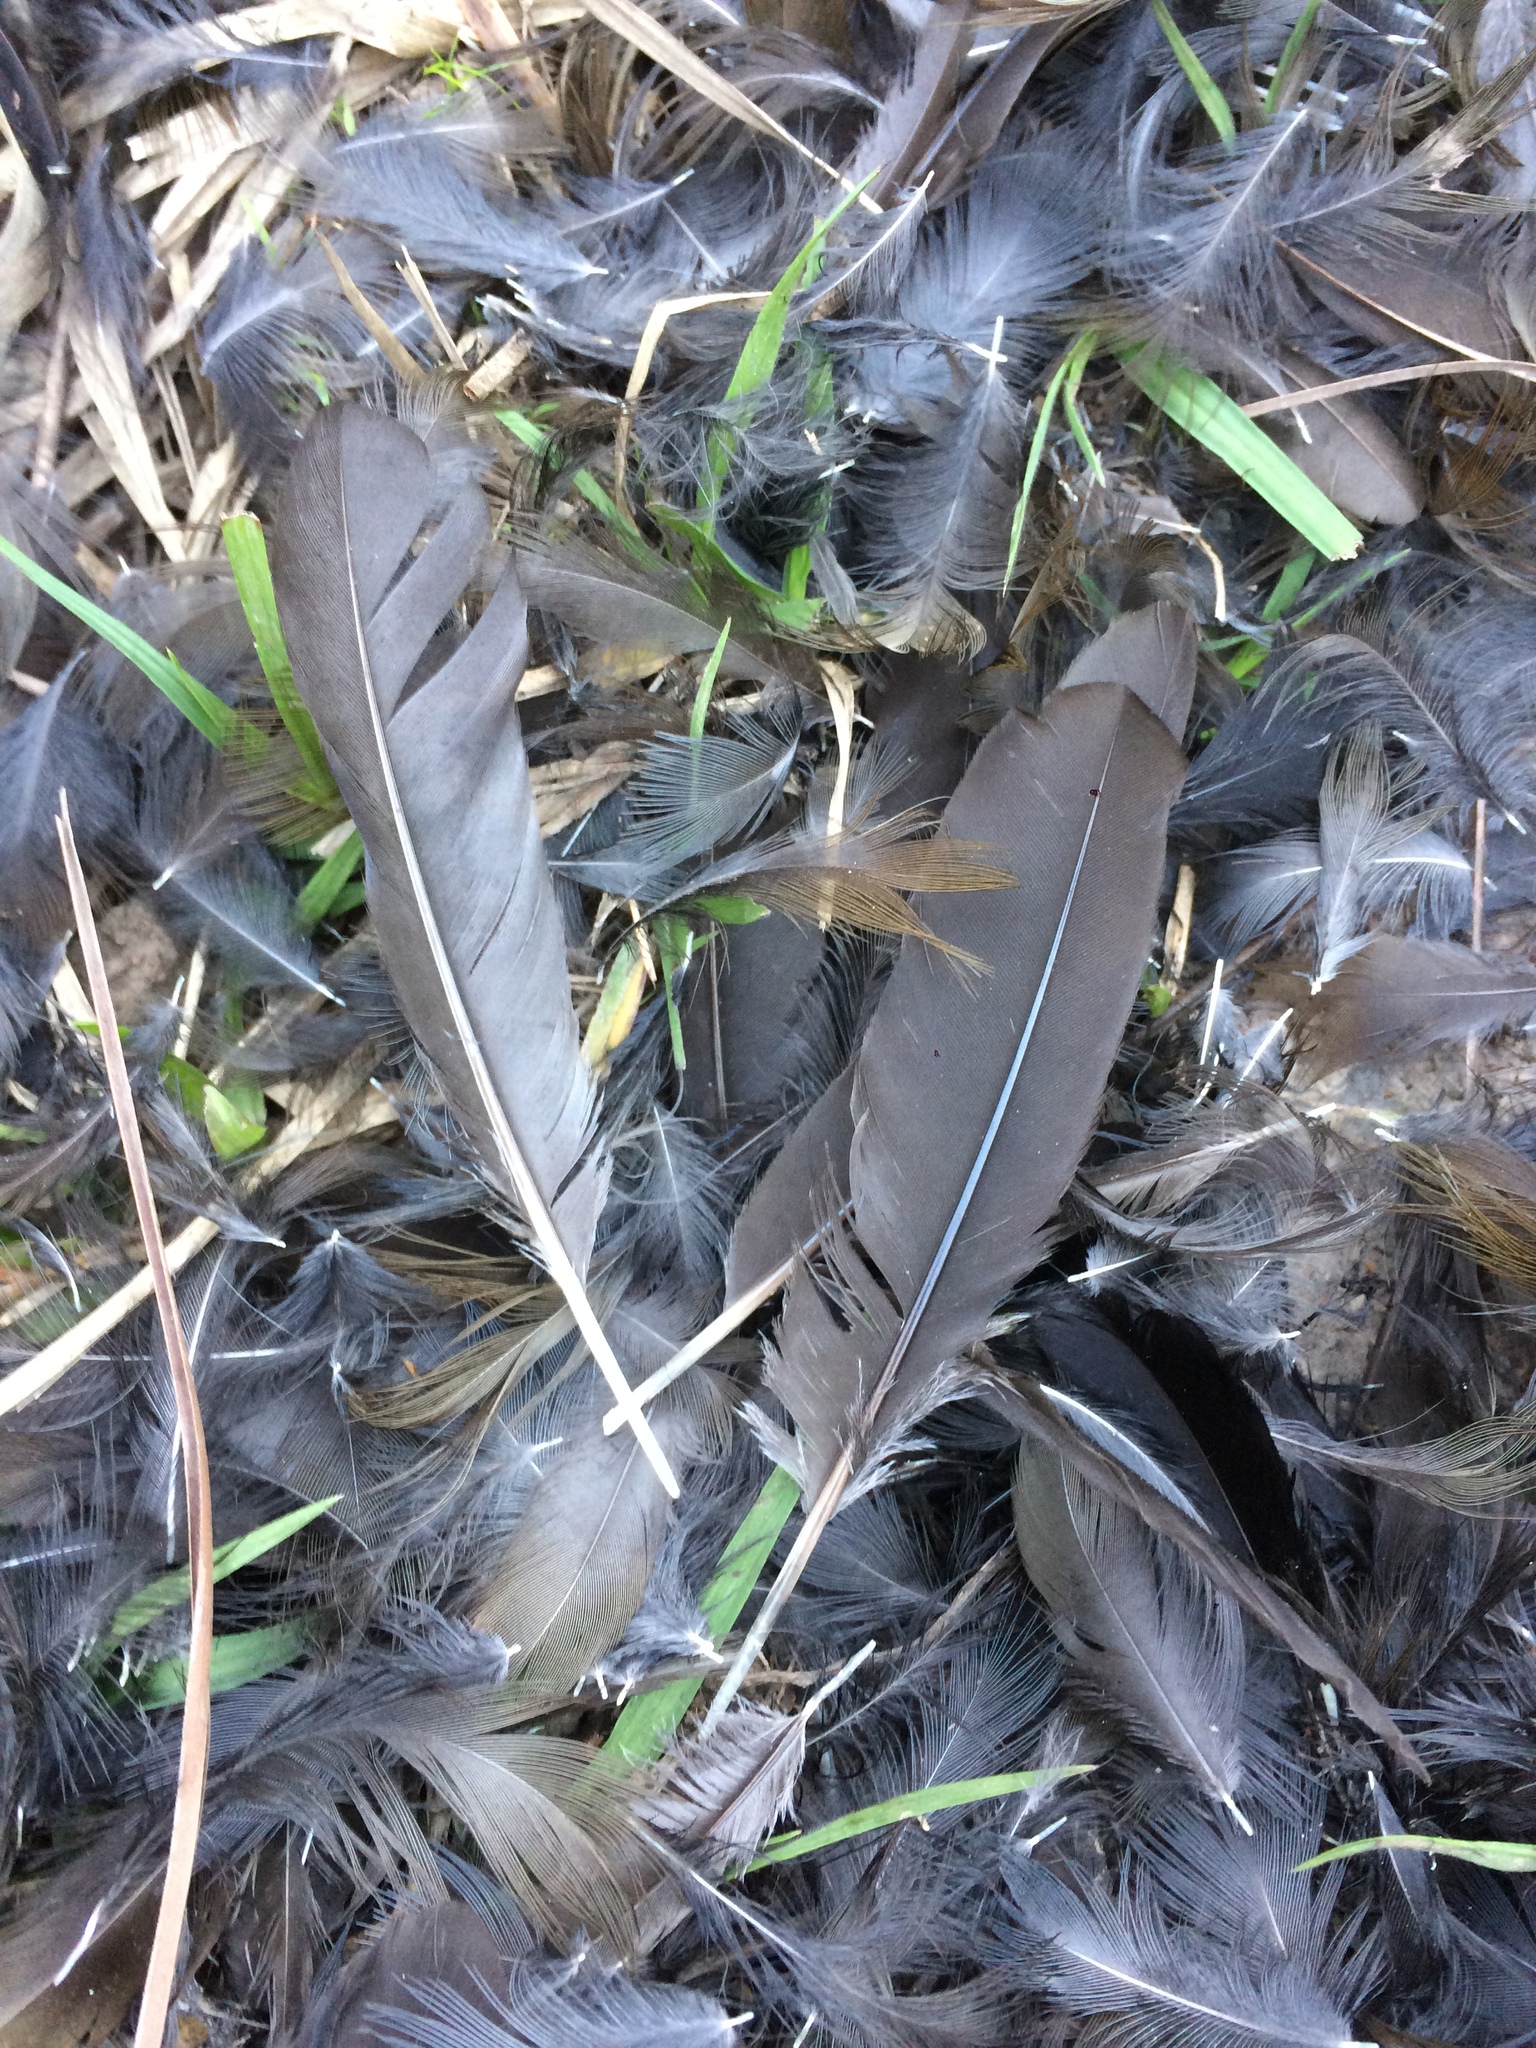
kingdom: Animalia
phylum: Chordata
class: Aves
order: Gruiformes
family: Rallidae
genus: Pardirallus
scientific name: Pardirallus
